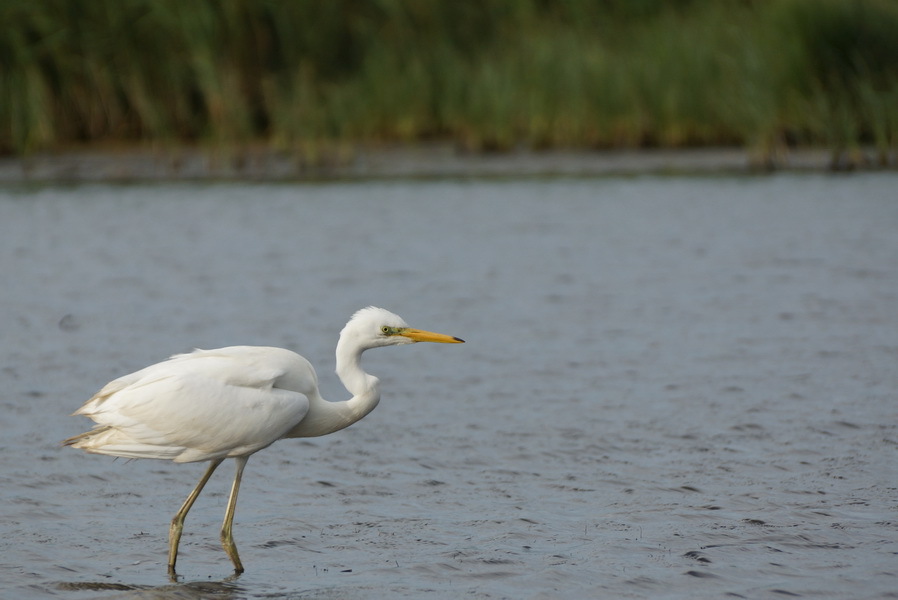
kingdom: Animalia
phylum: Chordata
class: Aves
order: Pelecaniformes
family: Ardeidae
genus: Ardea
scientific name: Ardea alba
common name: Great egret
